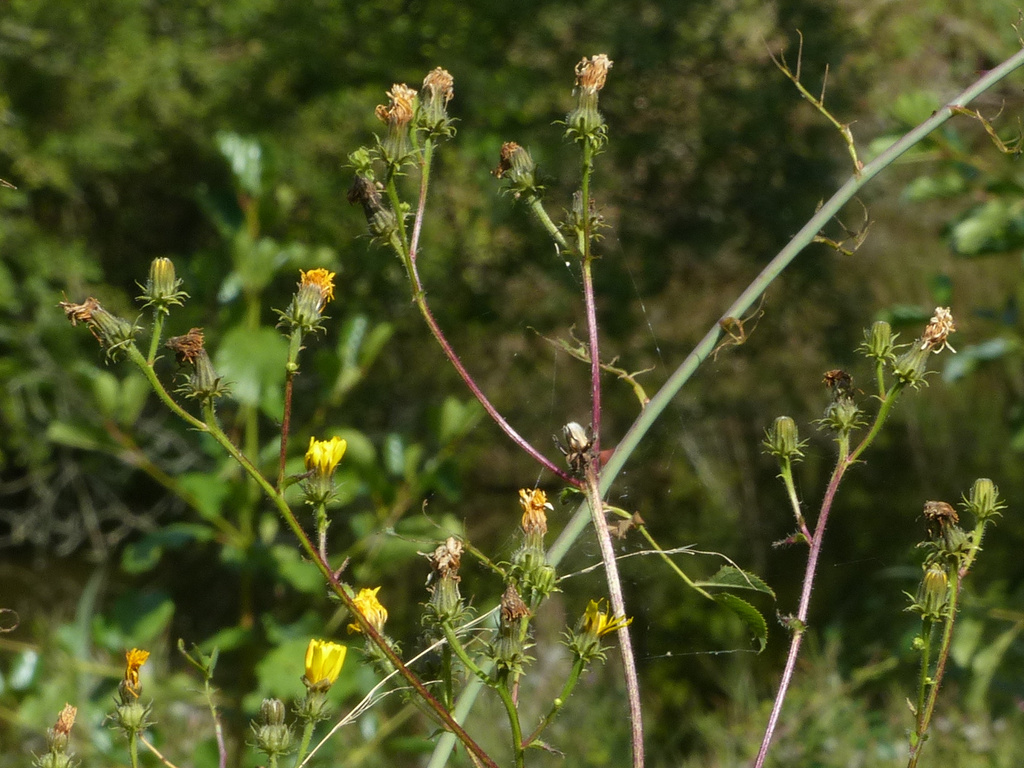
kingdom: Plantae
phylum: Tracheophyta
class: Magnoliopsida
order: Asterales
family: Asteraceae
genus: Picris
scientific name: Picris hieracioides
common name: Hawkweed oxtongue
